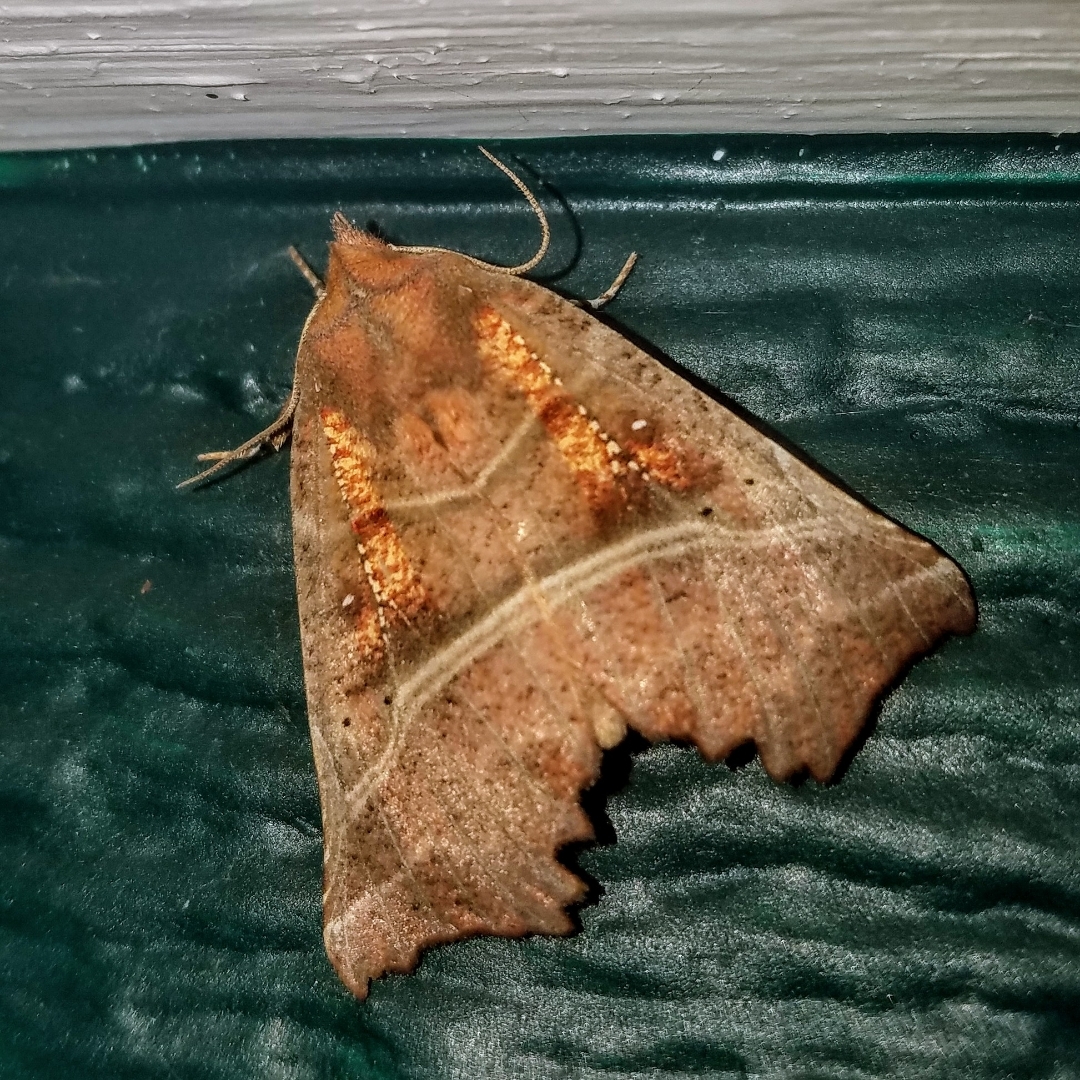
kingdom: Animalia
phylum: Arthropoda
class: Insecta
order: Lepidoptera
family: Erebidae
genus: Scoliopteryx
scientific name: Scoliopteryx libatrix
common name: Herald
